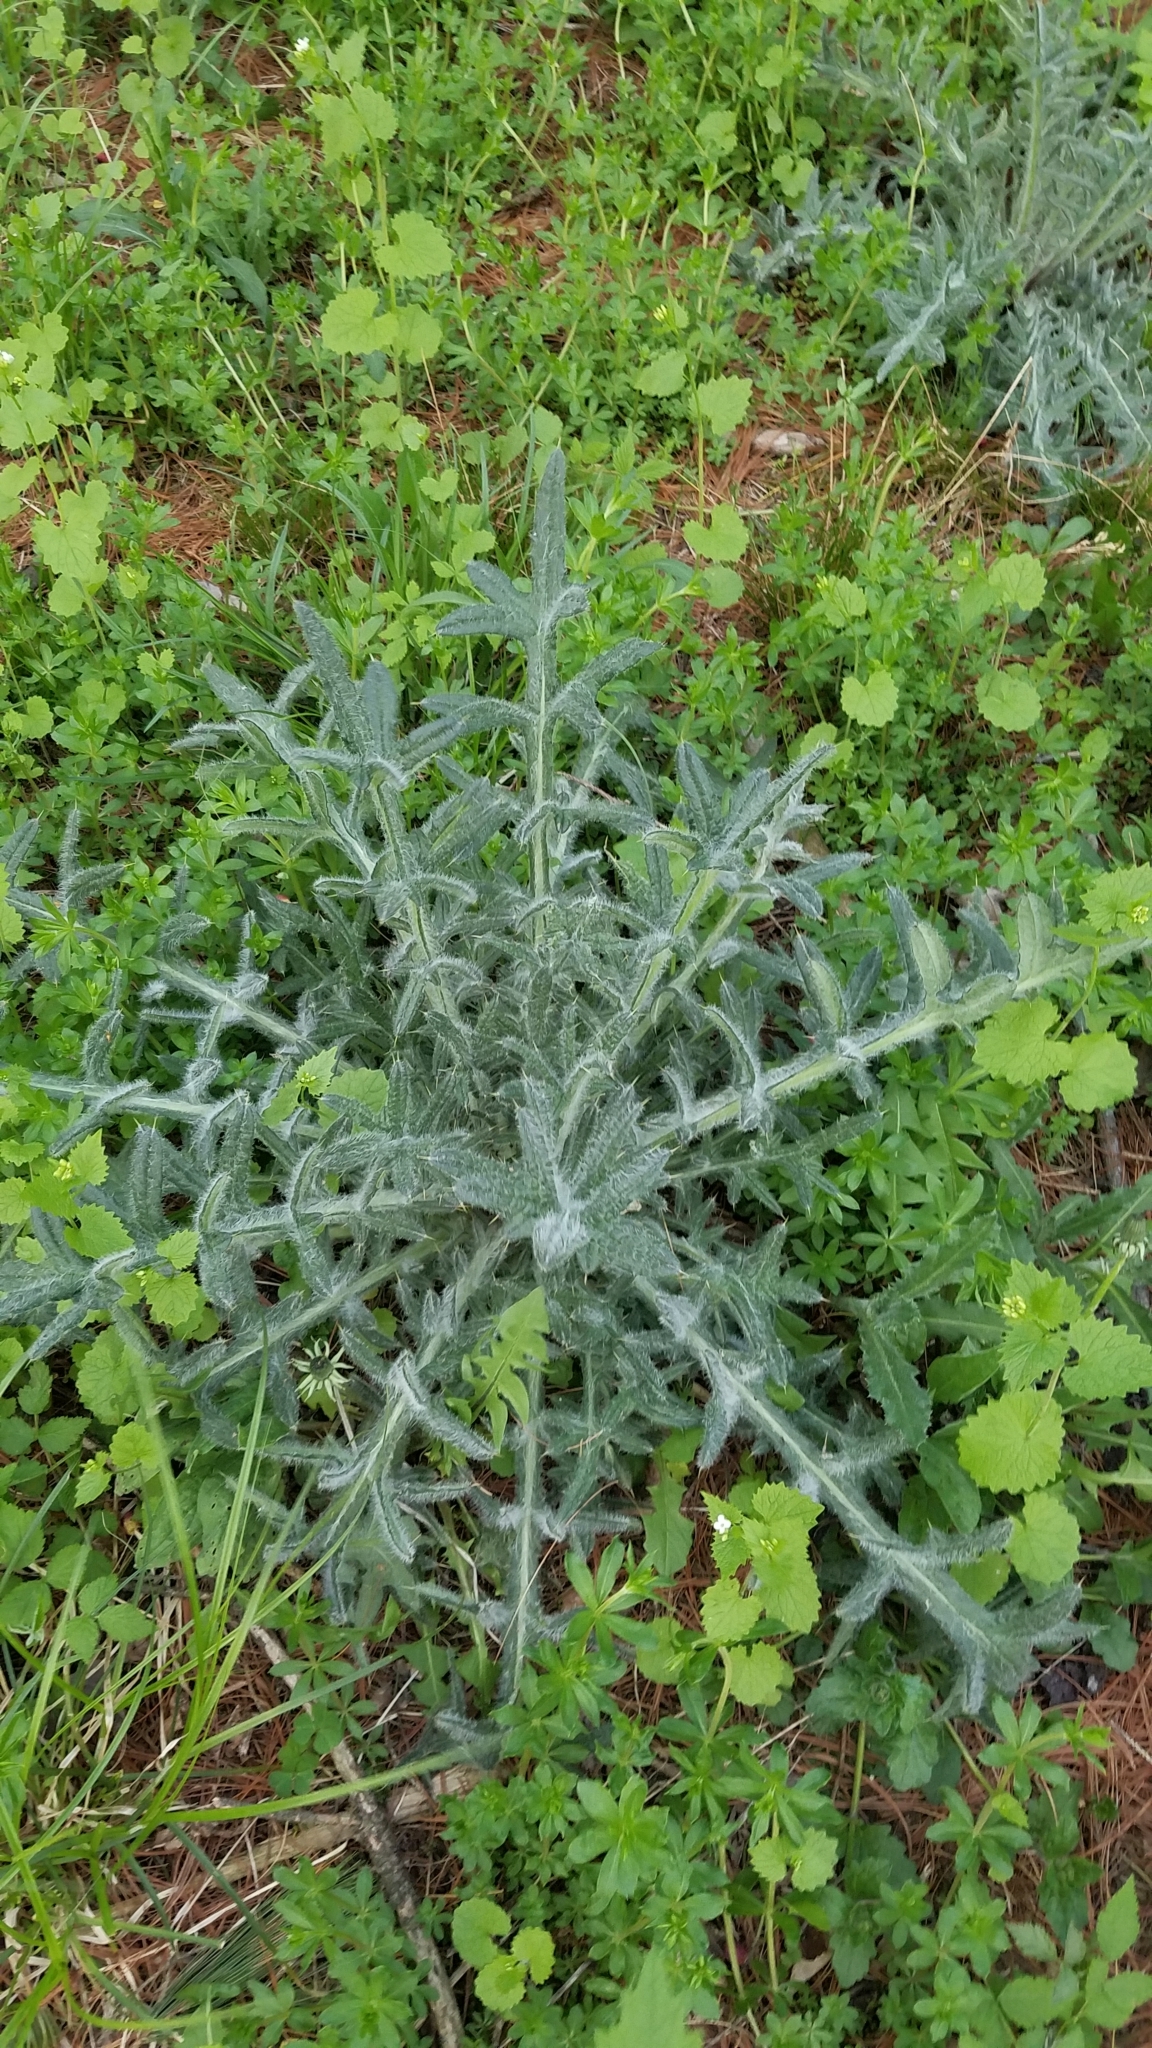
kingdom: Plantae
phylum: Tracheophyta
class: Magnoliopsida
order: Asterales
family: Asteraceae
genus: Cirsium
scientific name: Cirsium vulgare
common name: Bull thistle
